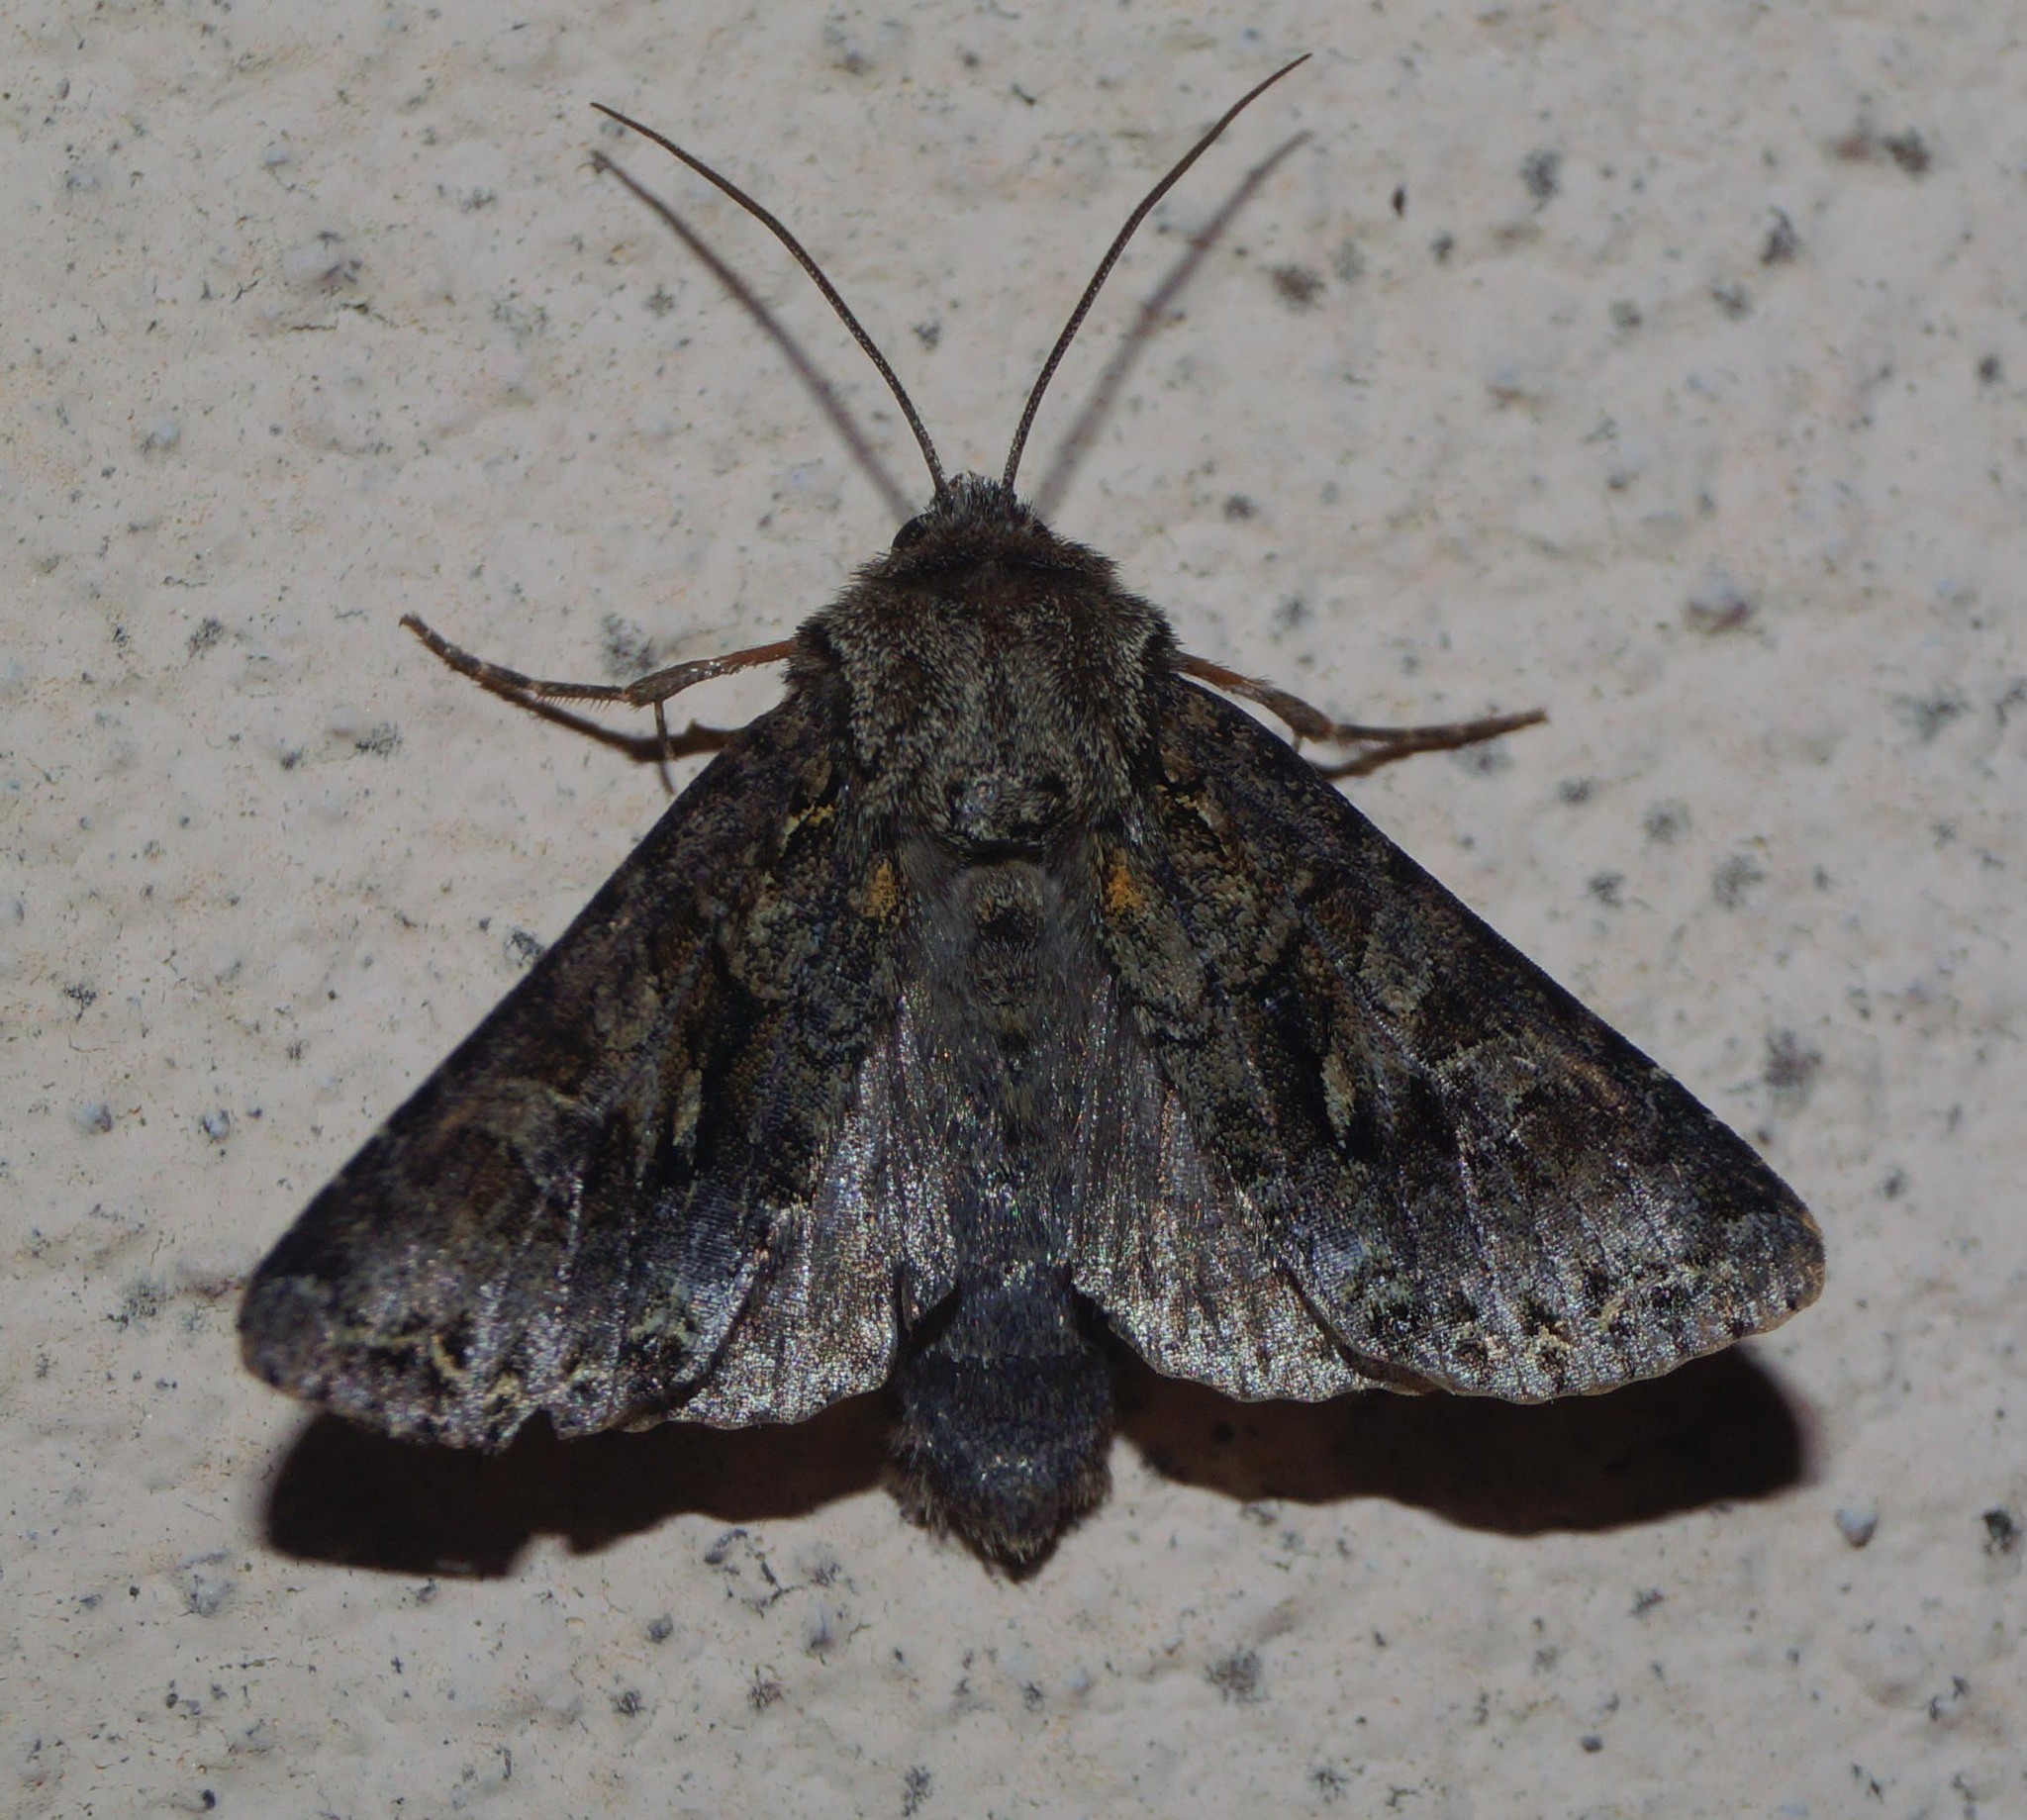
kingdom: Animalia
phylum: Arthropoda
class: Insecta
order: Lepidoptera
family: Noctuidae
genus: Hada
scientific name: Hada plebeja
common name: Shears
